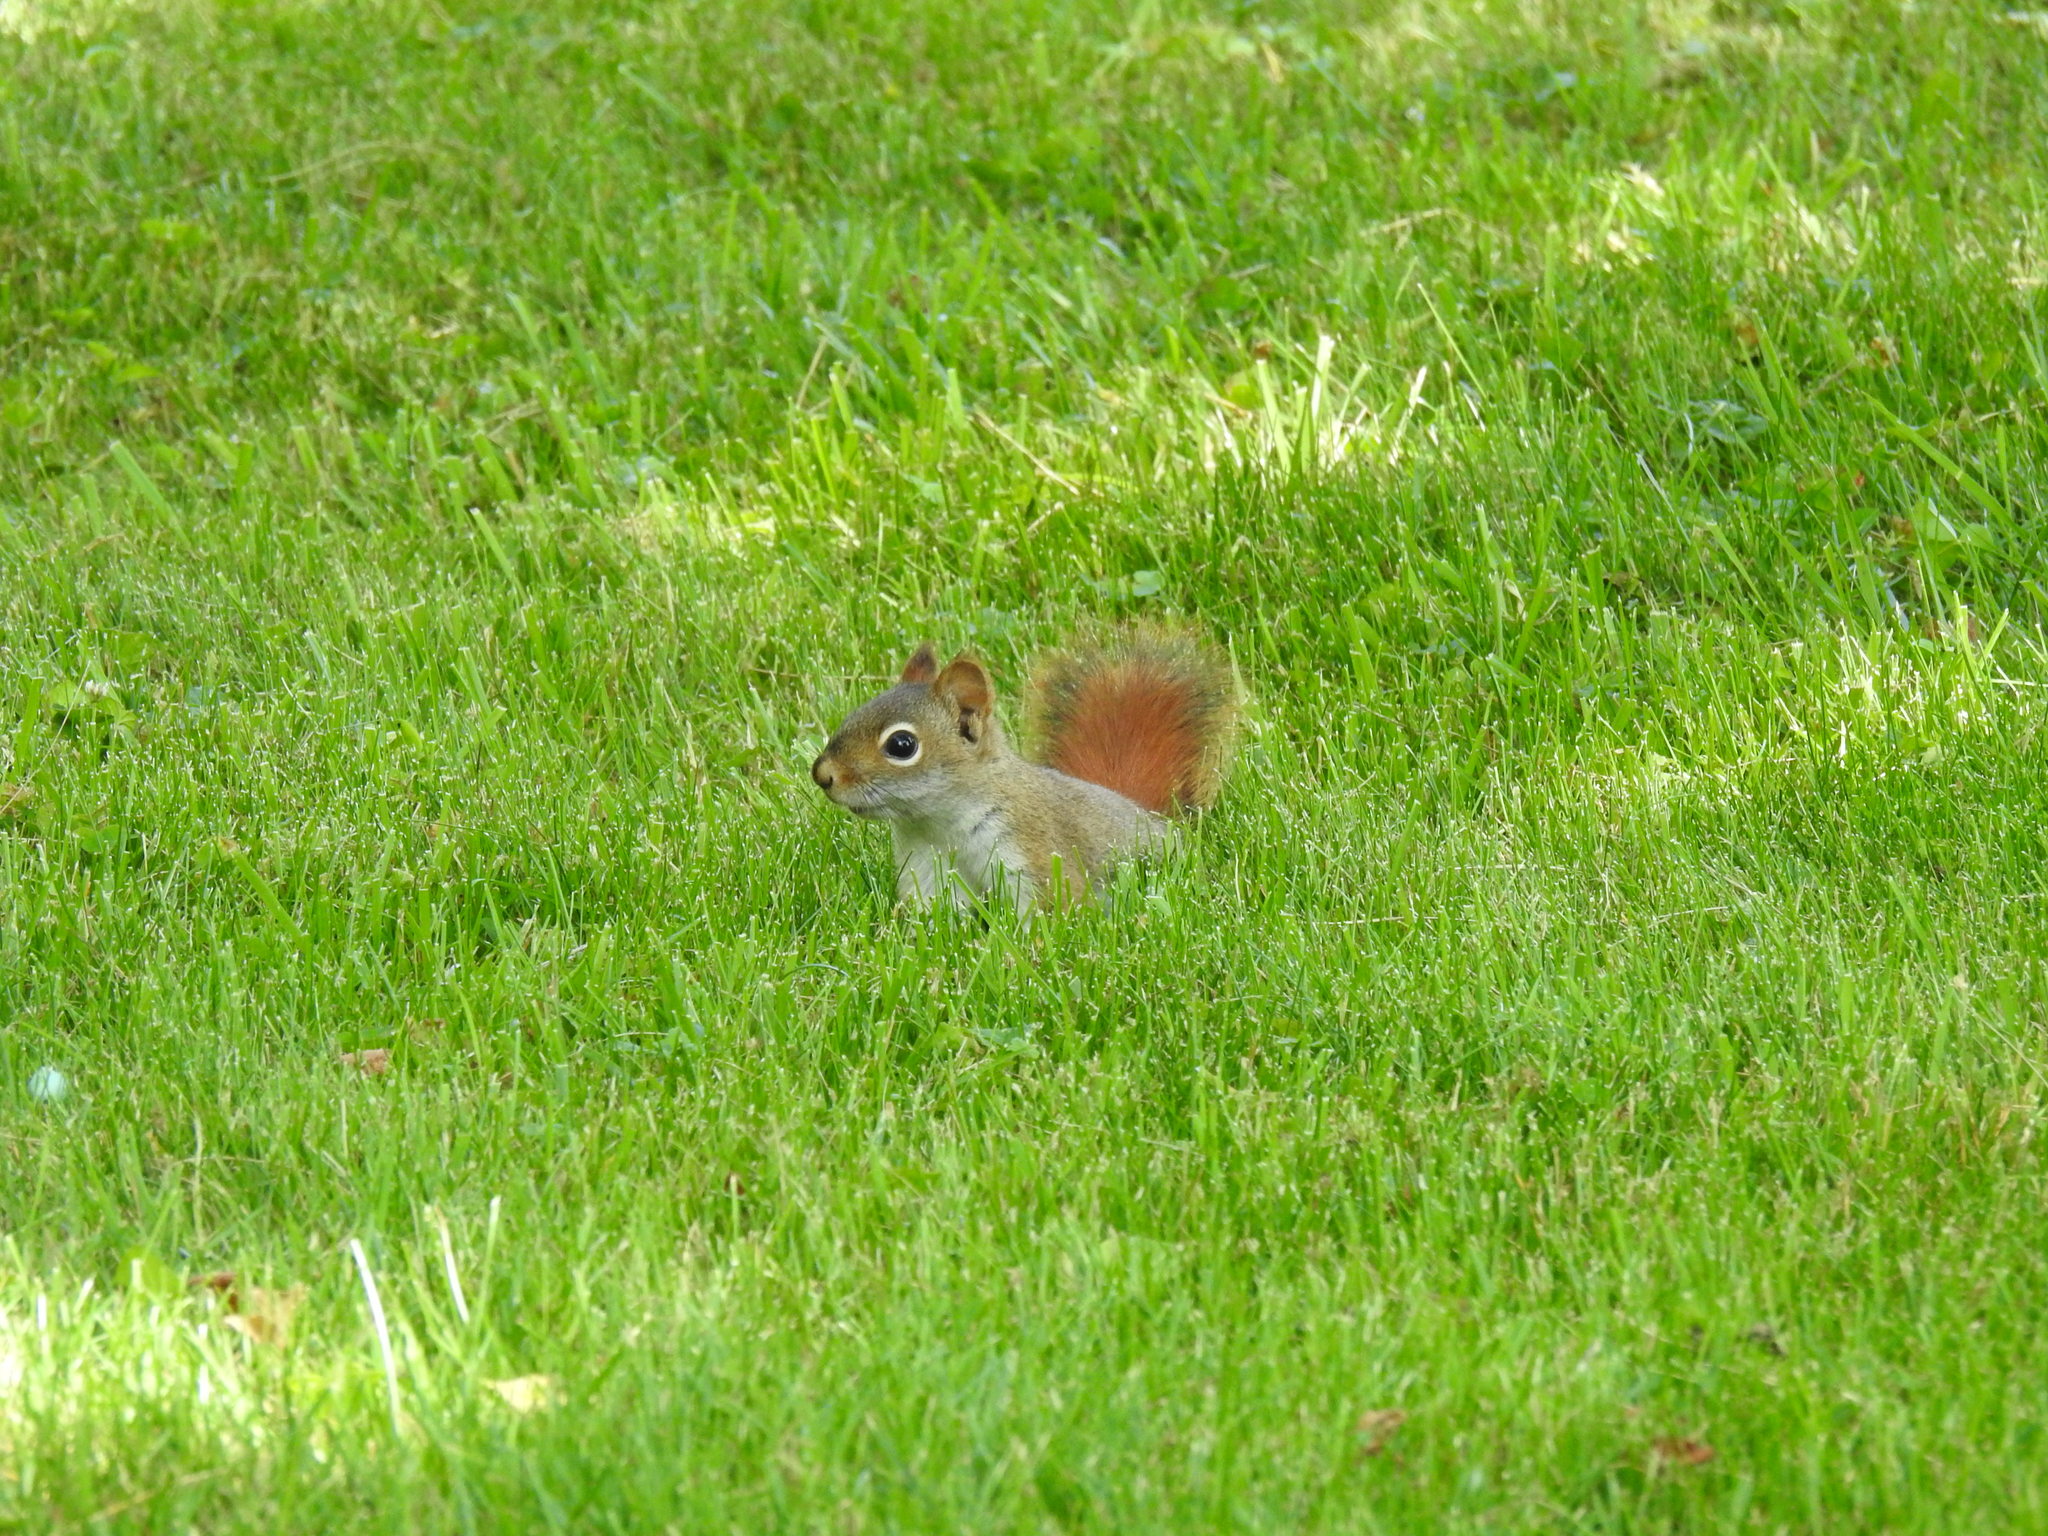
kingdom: Animalia
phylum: Chordata
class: Mammalia
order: Rodentia
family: Sciuridae
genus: Tamiasciurus
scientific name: Tamiasciurus hudsonicus
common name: Red squirrel
